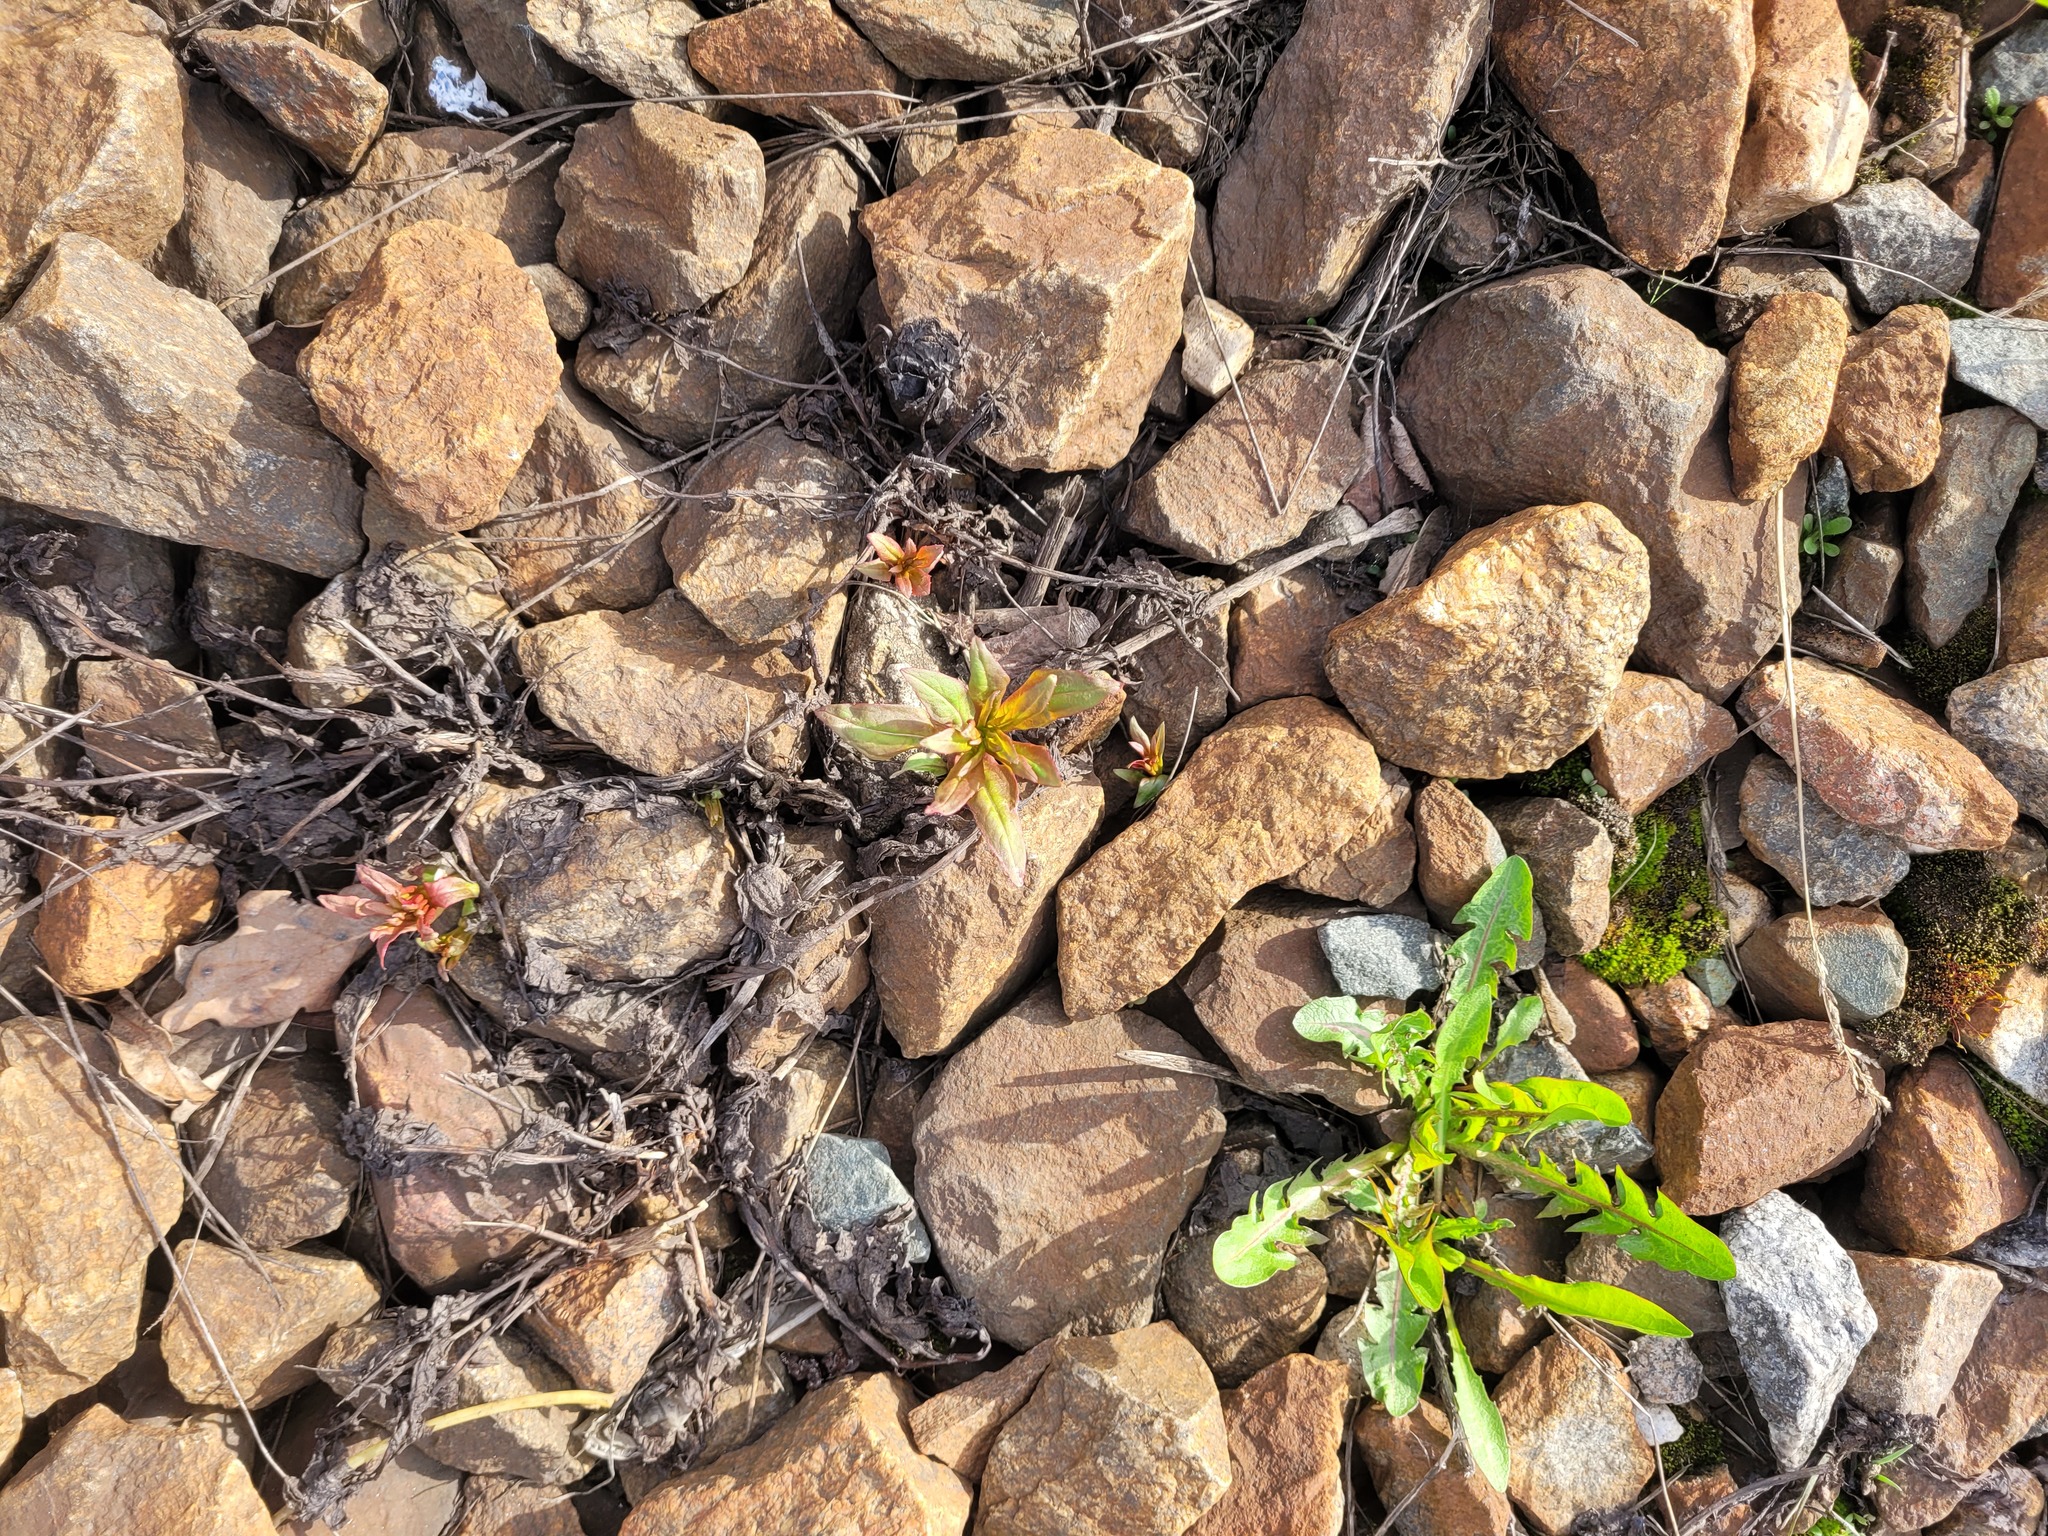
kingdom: Plantae
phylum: Tracheophyta
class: Magnoliopsida
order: Myrtales
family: Onagraceae
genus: Chamaenerion
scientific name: Chamaenerion angustifolium
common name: Fireweed
